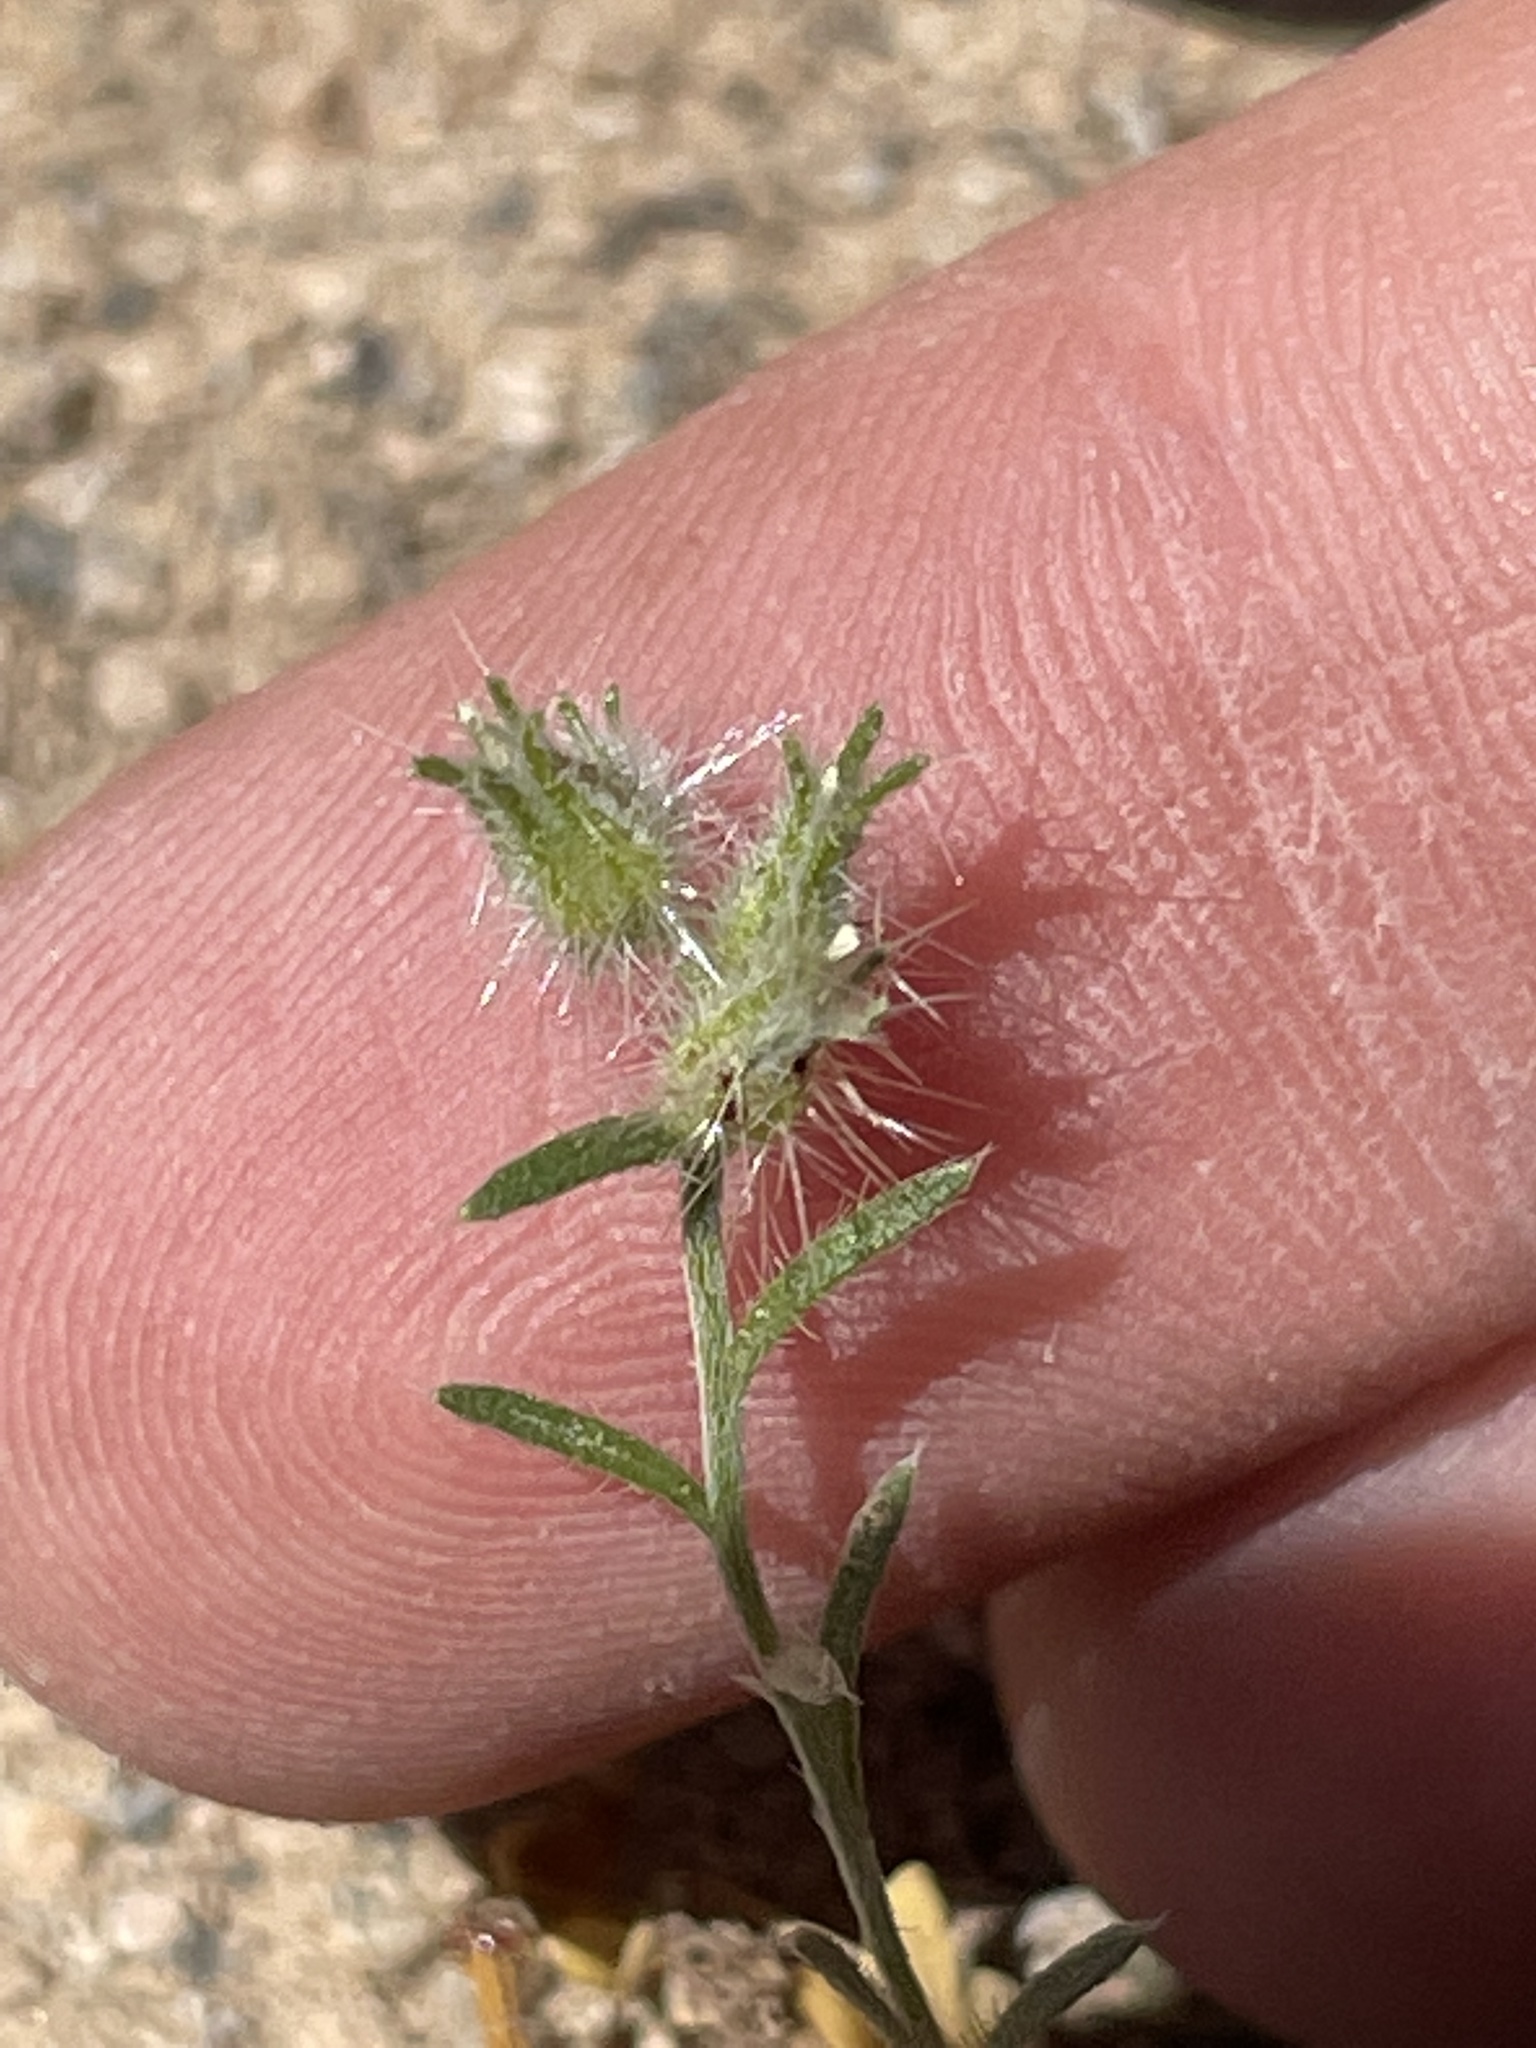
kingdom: Plantae
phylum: Tracheophyta
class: Magnoliopsida
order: Boraginales
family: Boraginaceae
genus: Cryptantha
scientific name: Cryptantha nevadensis
